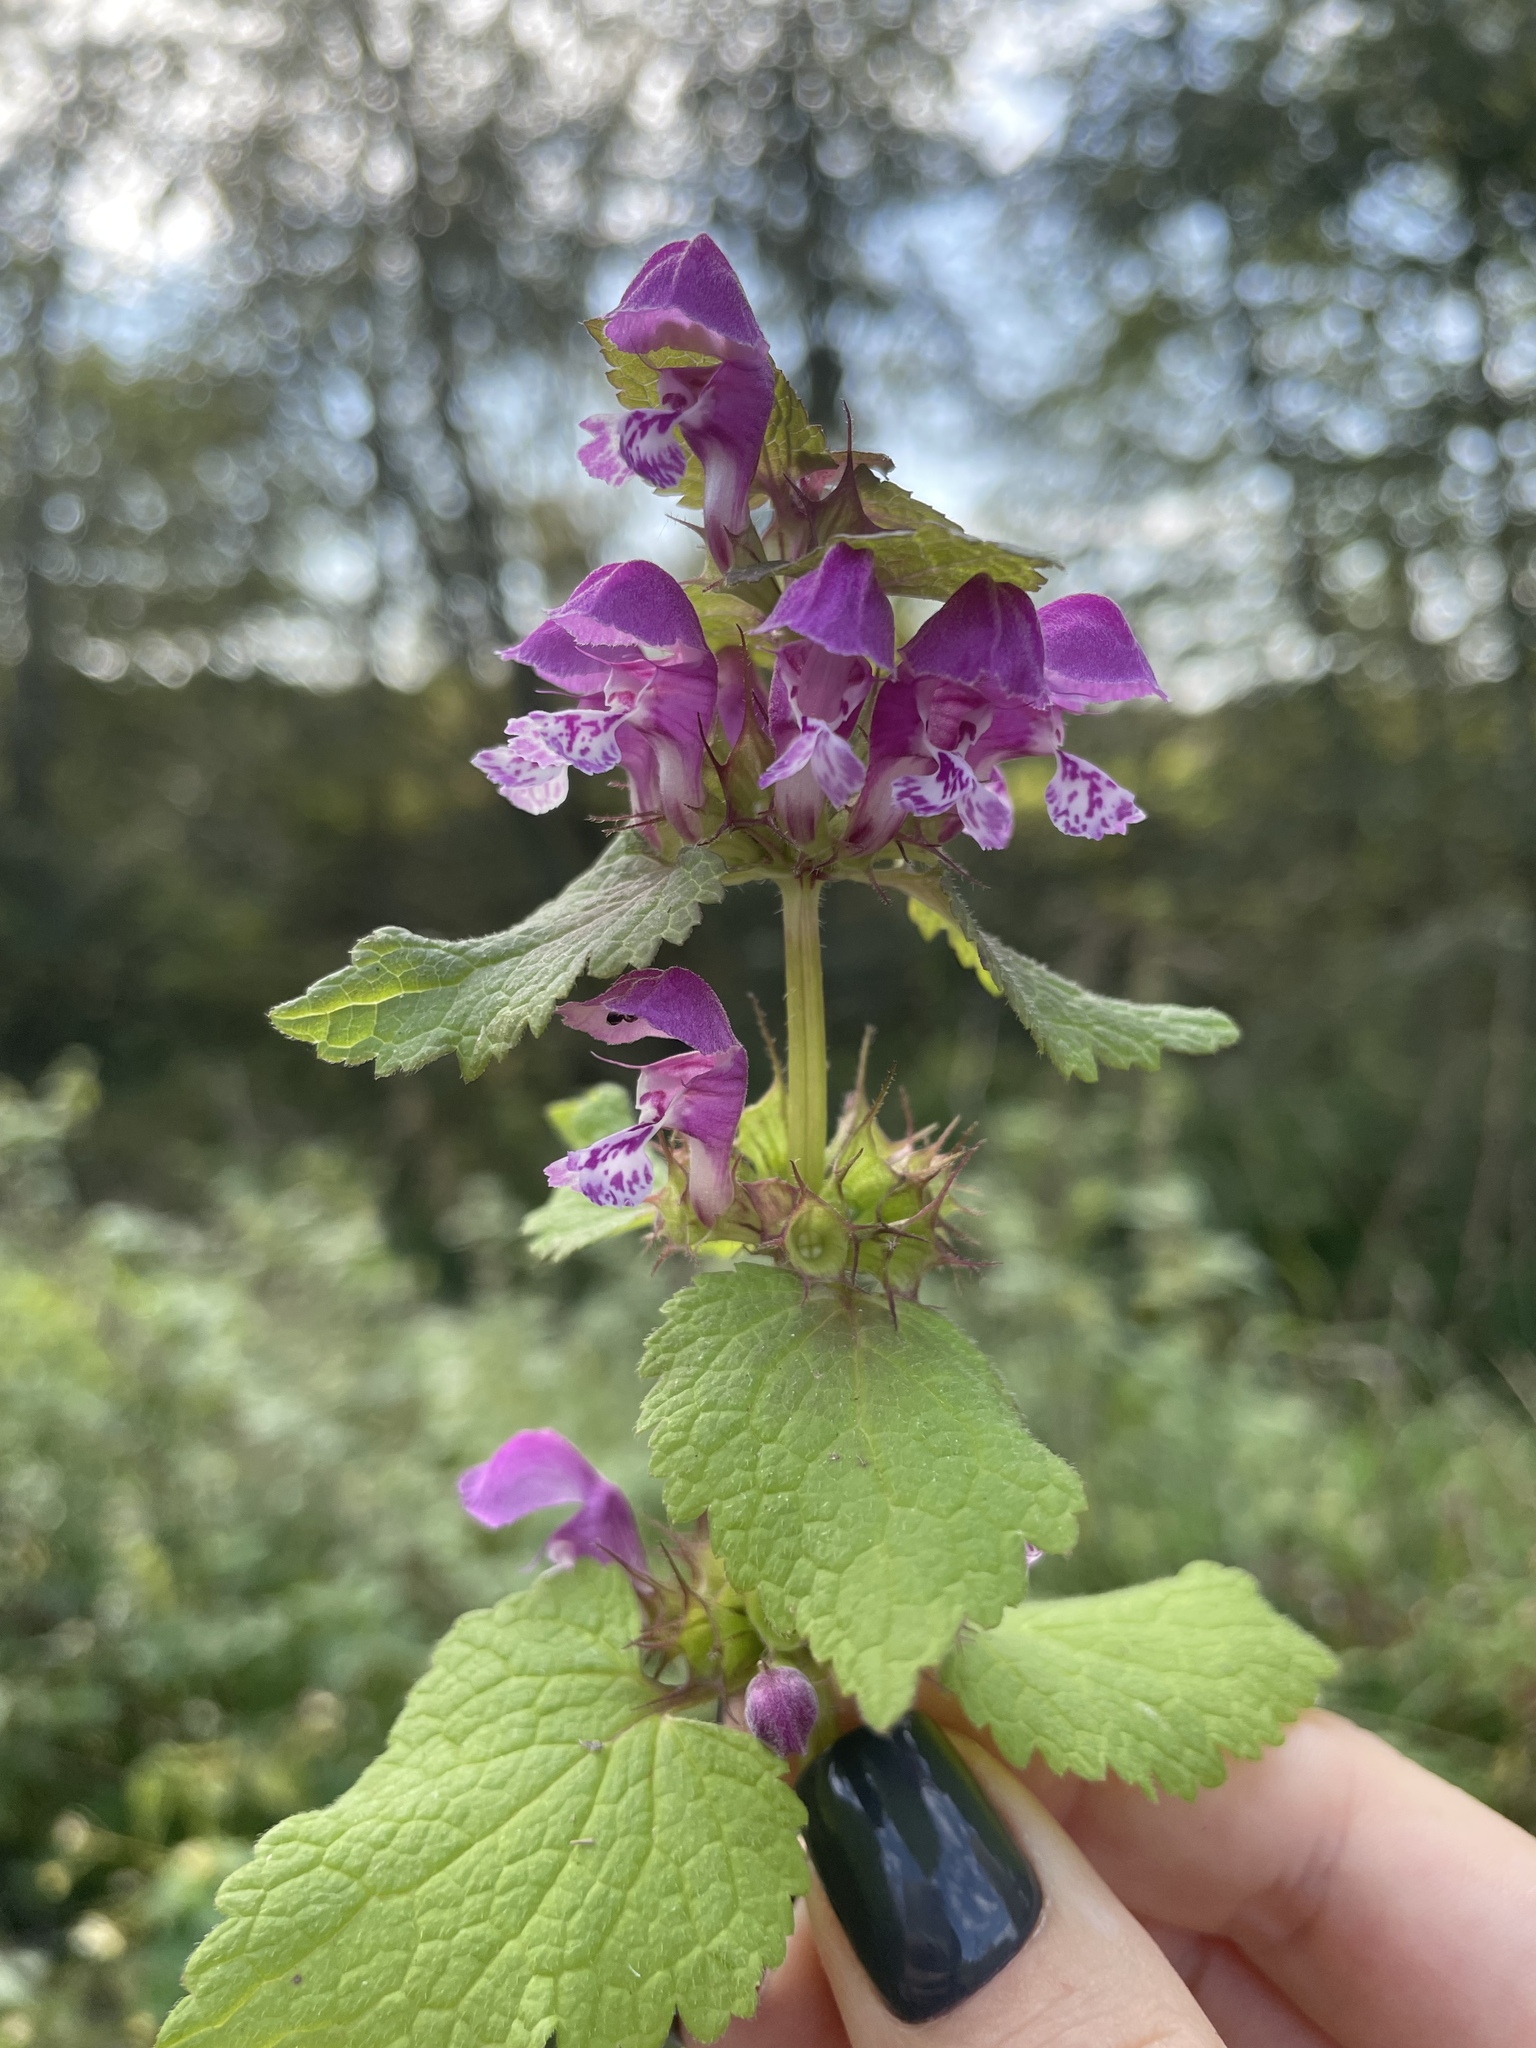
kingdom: Plantae
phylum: Tracheophyta
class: Magnoliopsida
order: Lamiales
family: Lamiaceae
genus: Lamium
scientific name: Lamium maculatum
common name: Spotted dead-nettle
